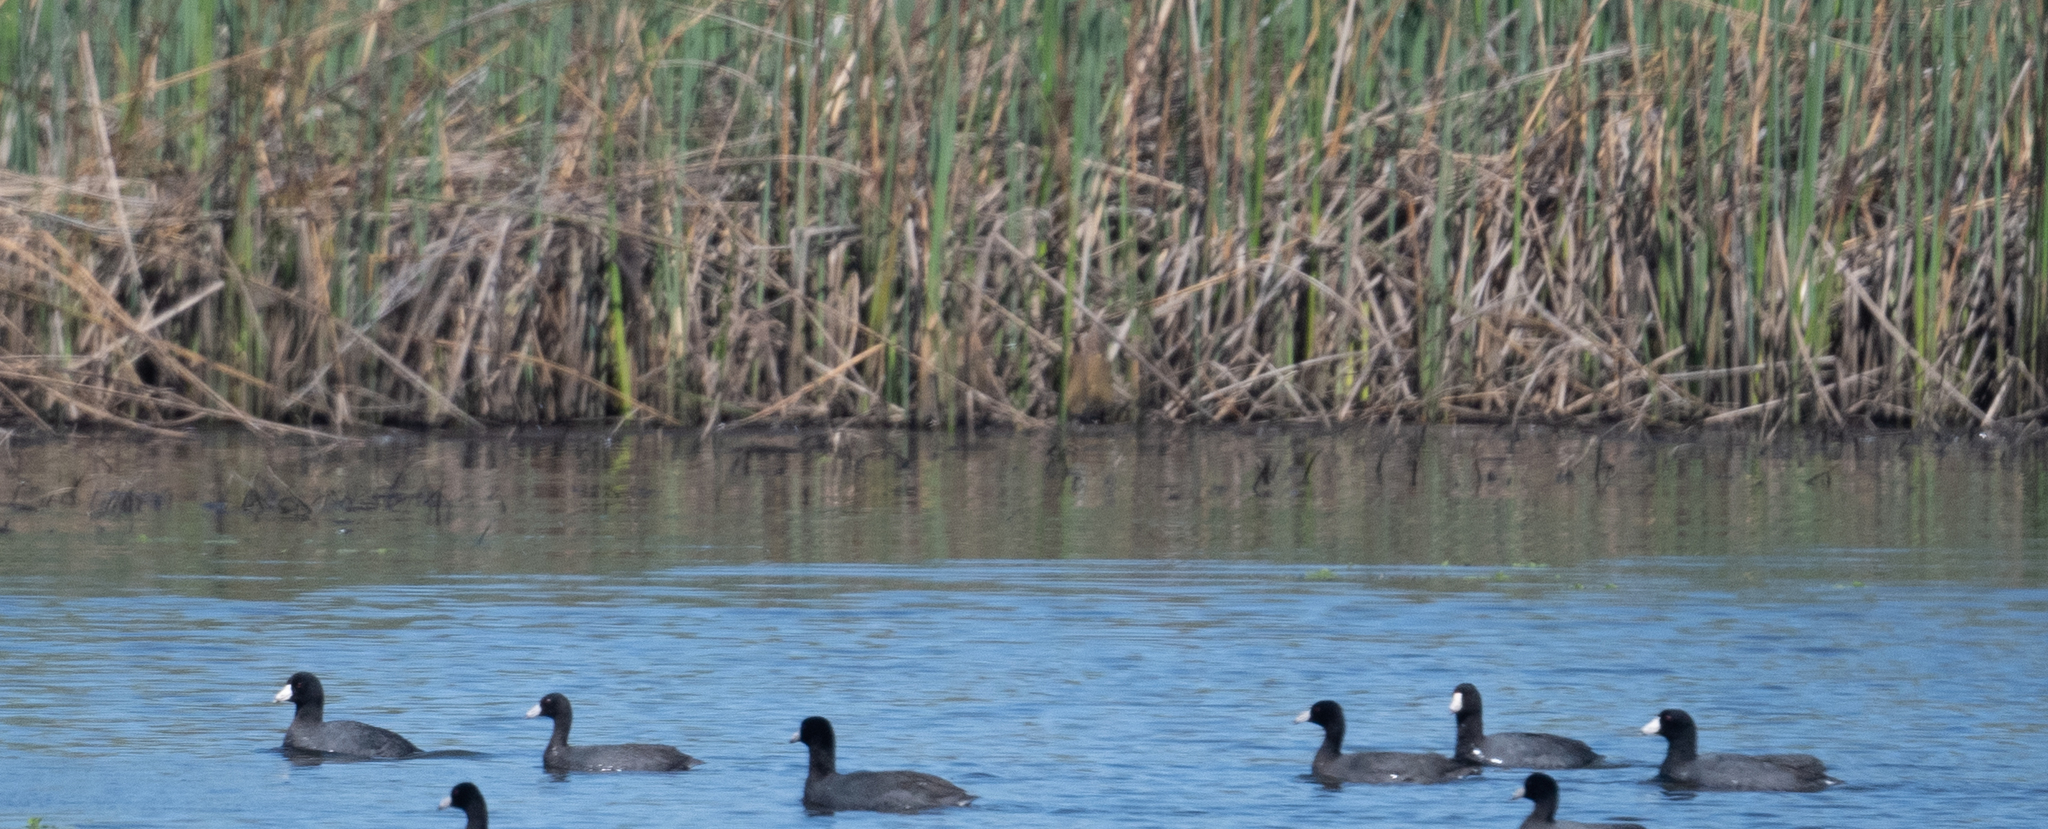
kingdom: Animalia
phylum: Chordata
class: Aves
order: Gruiformes
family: Rallidae
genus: Fulica
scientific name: Fulica americana
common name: American coot
